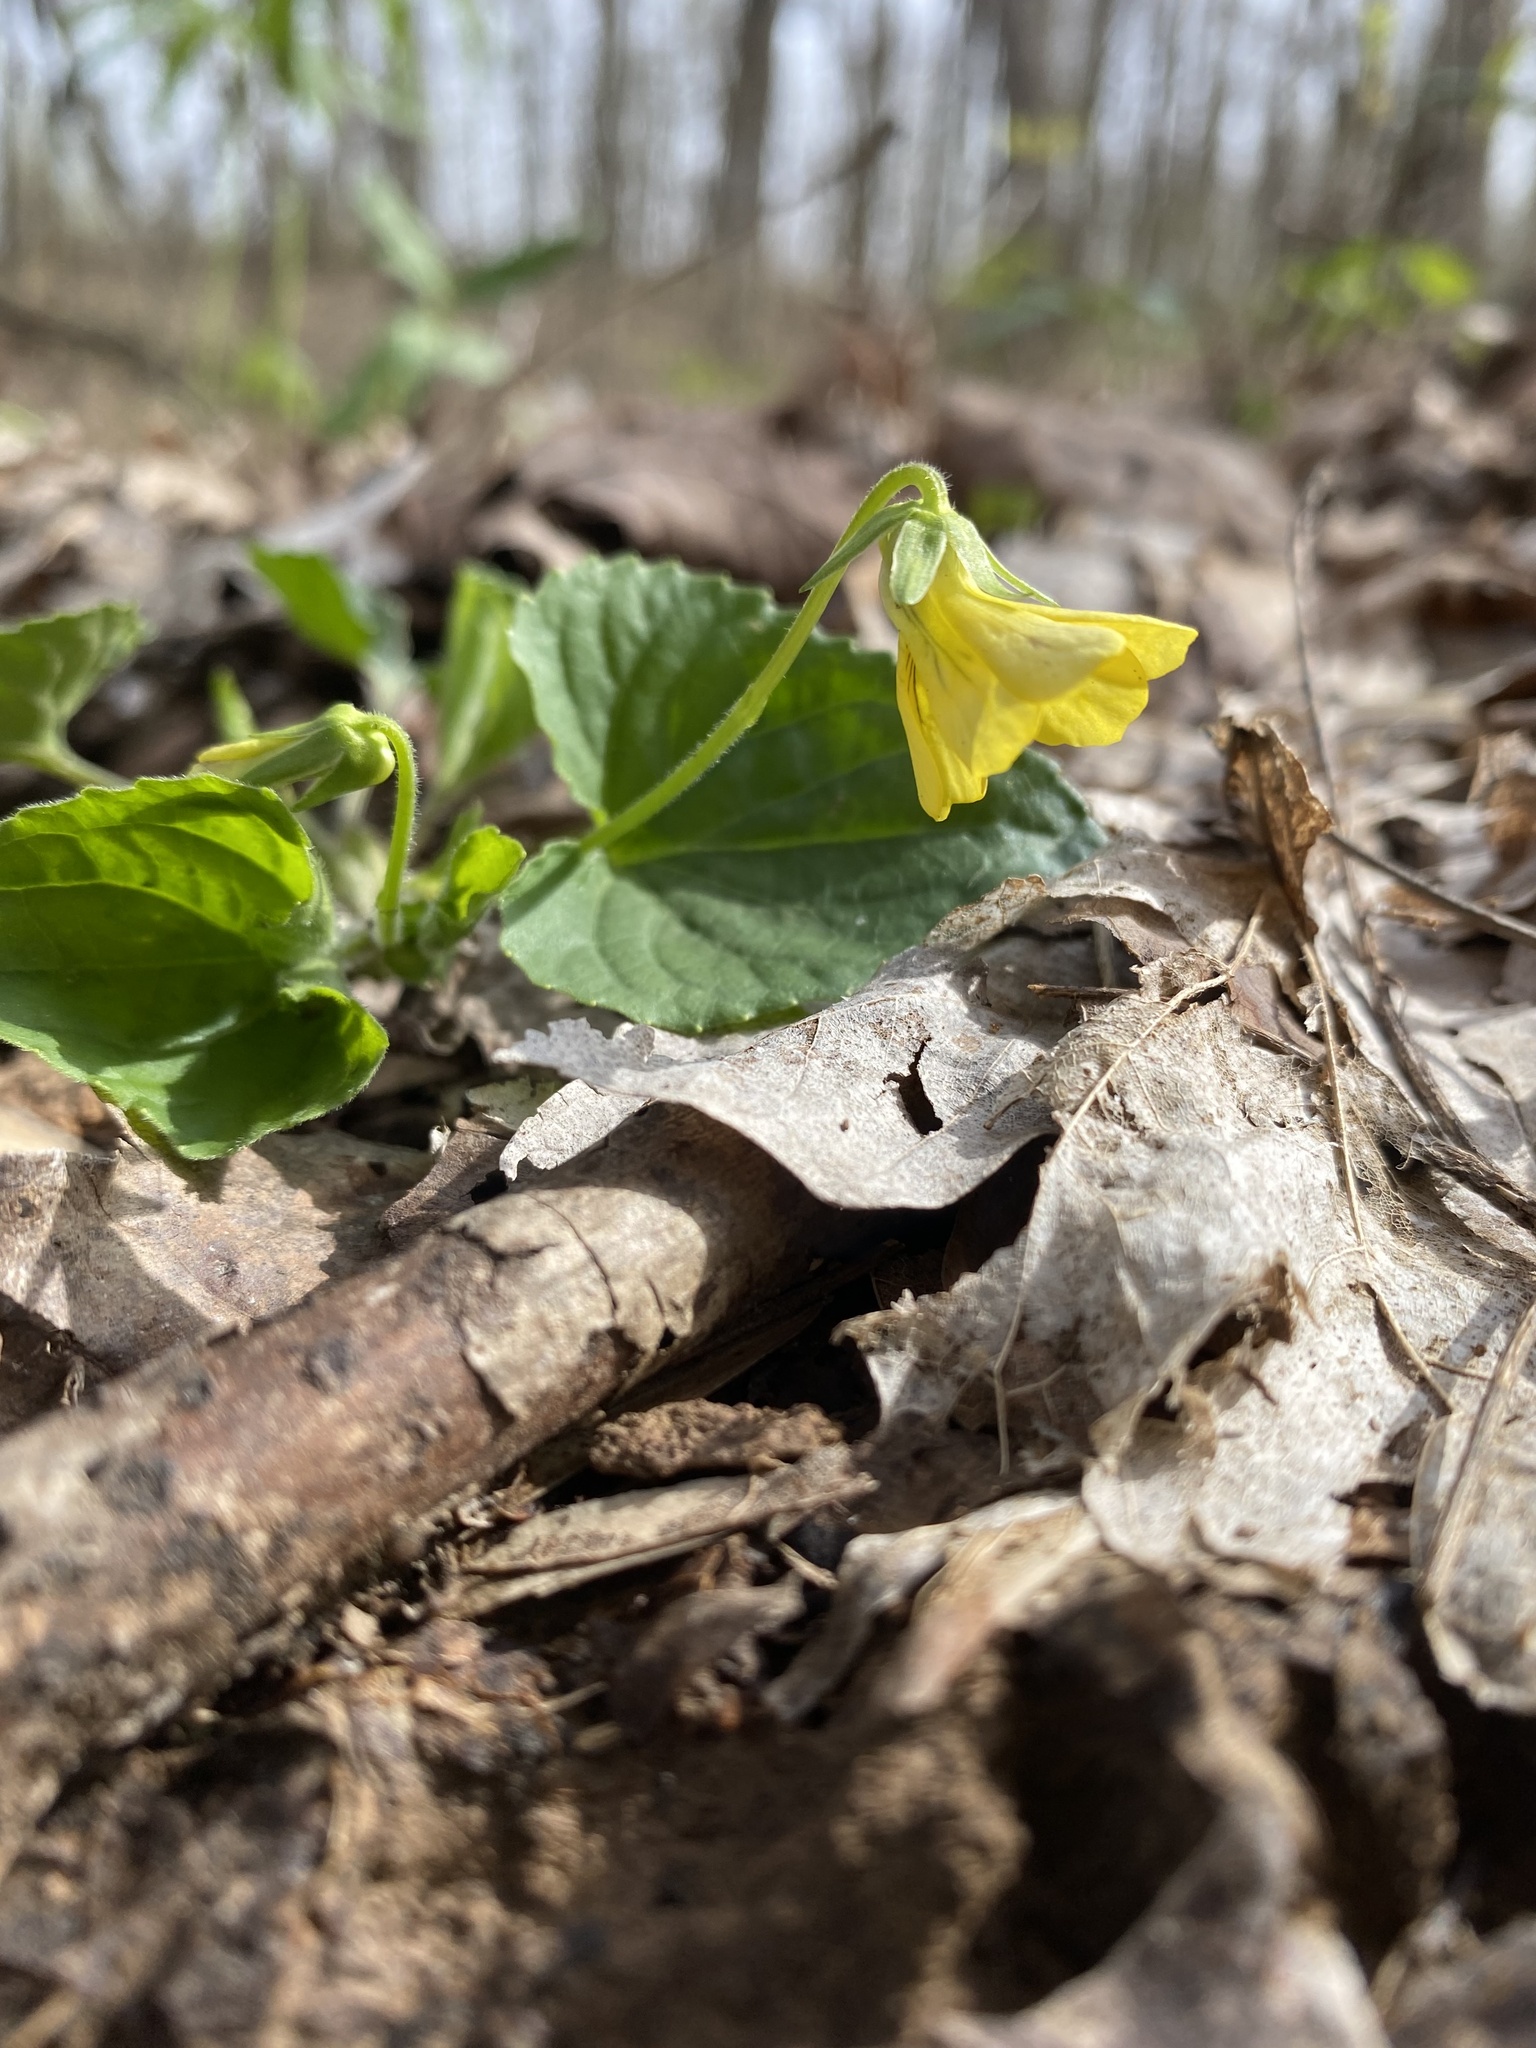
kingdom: Plantae
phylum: Tracheophyta
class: Magnoliopsida
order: Malpighiales
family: Violaceae
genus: Viola
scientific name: Viola eriocarpa
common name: Smooth yellow violet
